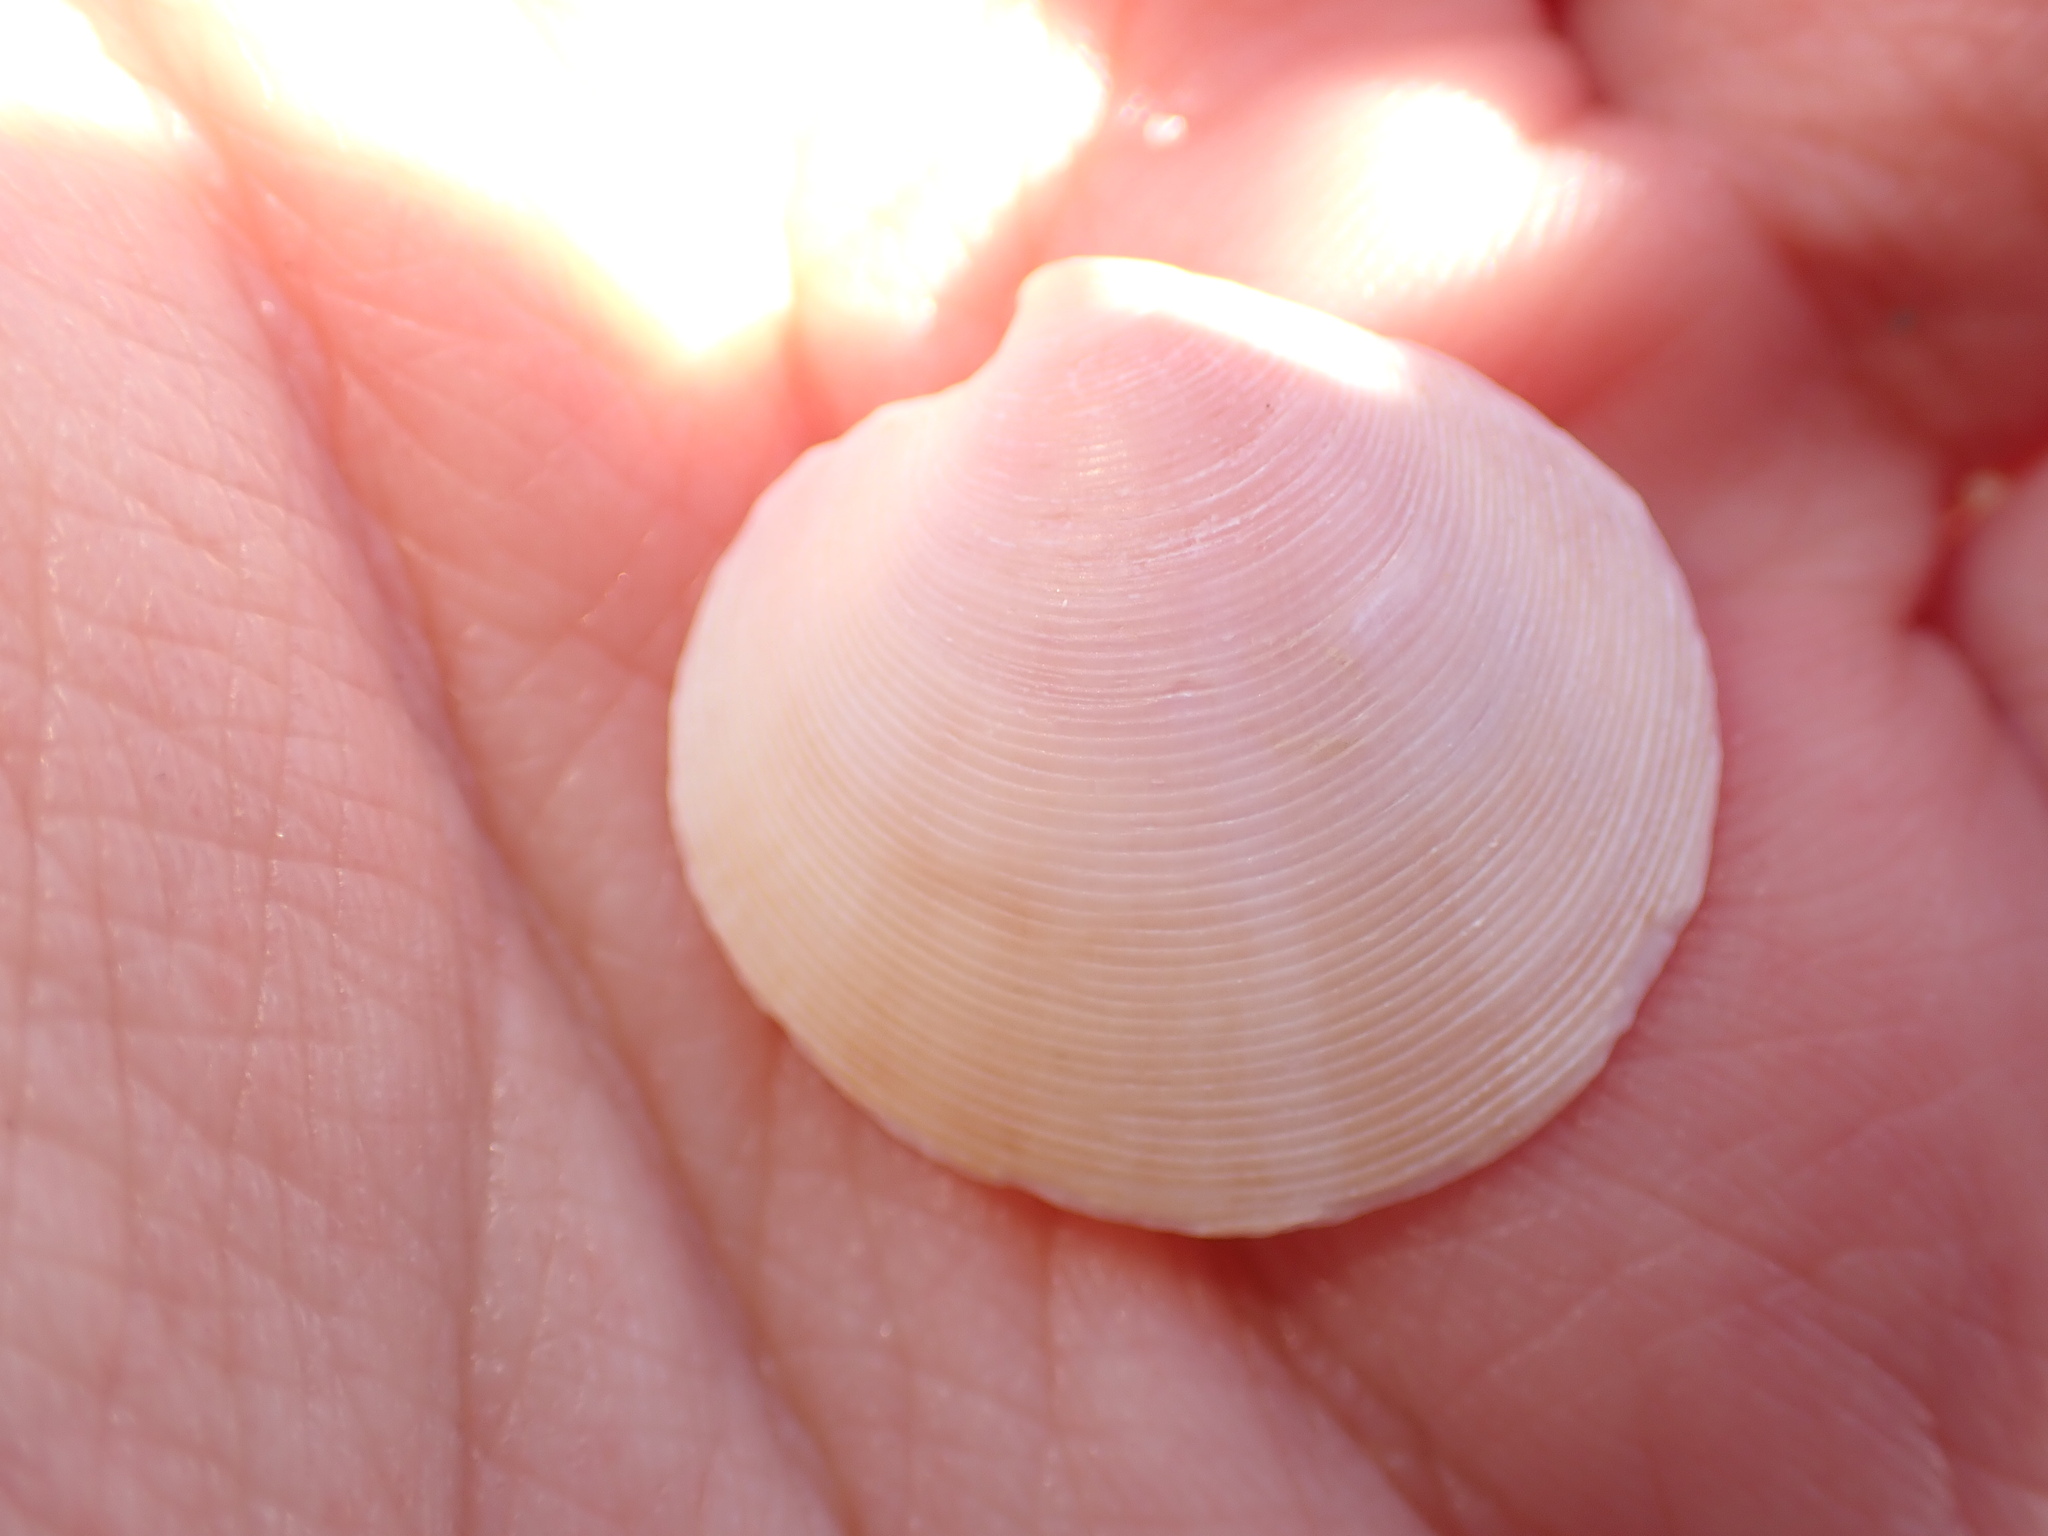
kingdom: Animalia
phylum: Mollusca
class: Bivalvia
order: Venerida
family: Veneridae
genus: Dosinia
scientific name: Dosinia exoleta
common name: Rayed artemis
